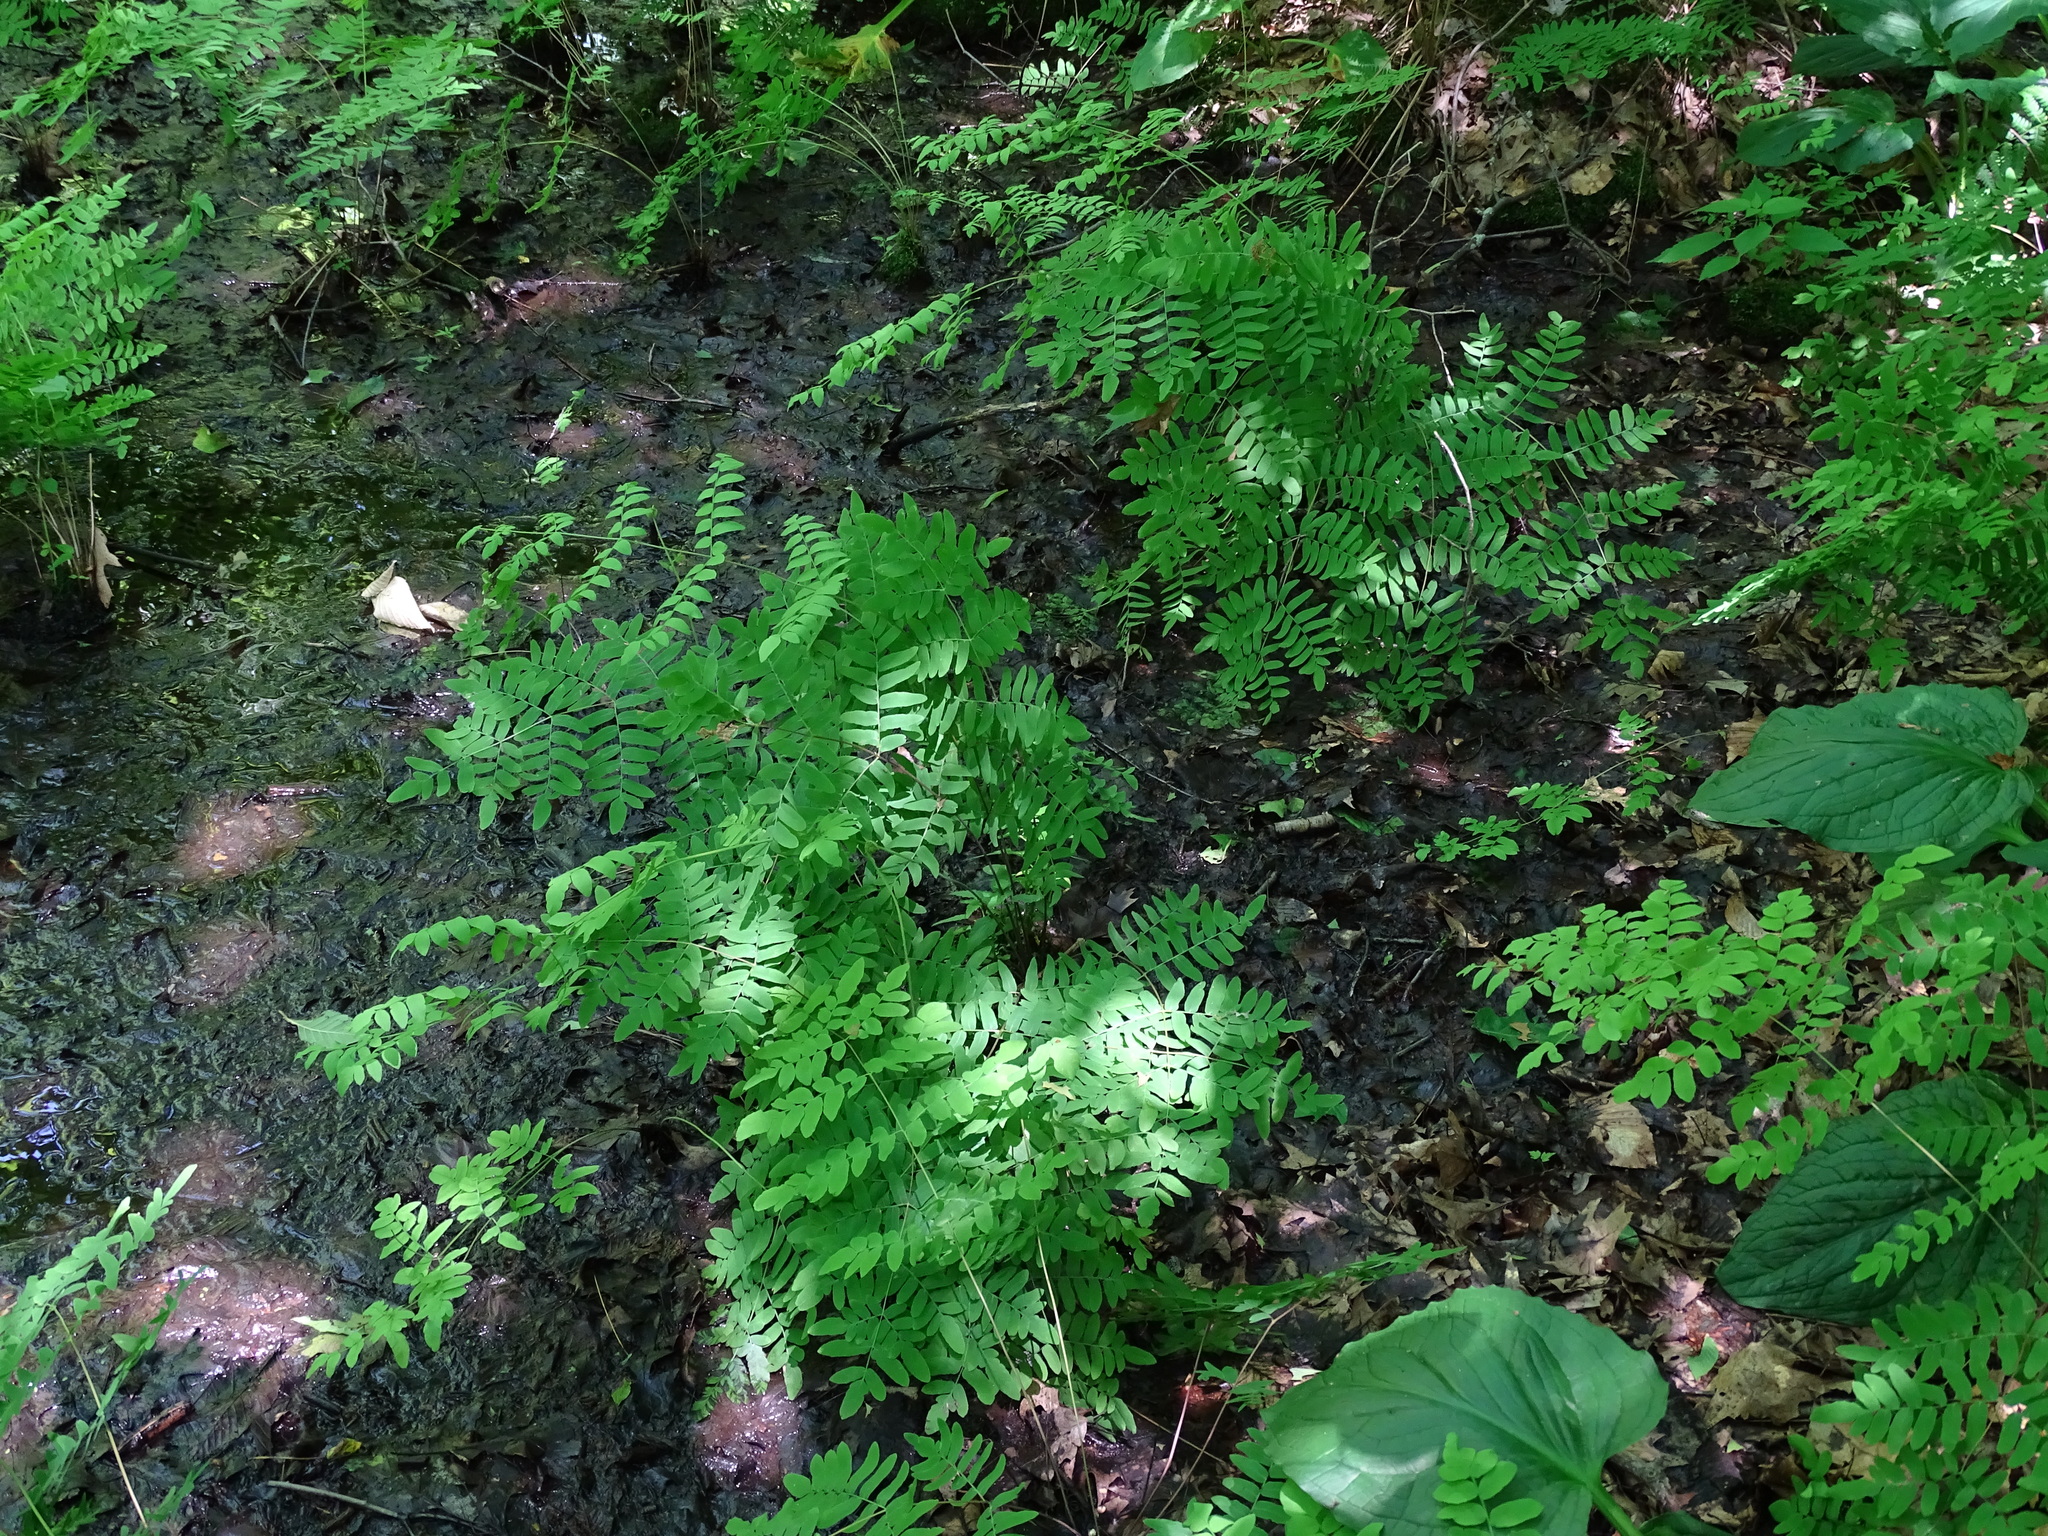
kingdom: Plantae
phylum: Tracheophyta
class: Polypodiopsida
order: Osmundales
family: Osmundaceae
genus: Osmunda
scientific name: Osmunda spectabilis
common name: American royal fern
